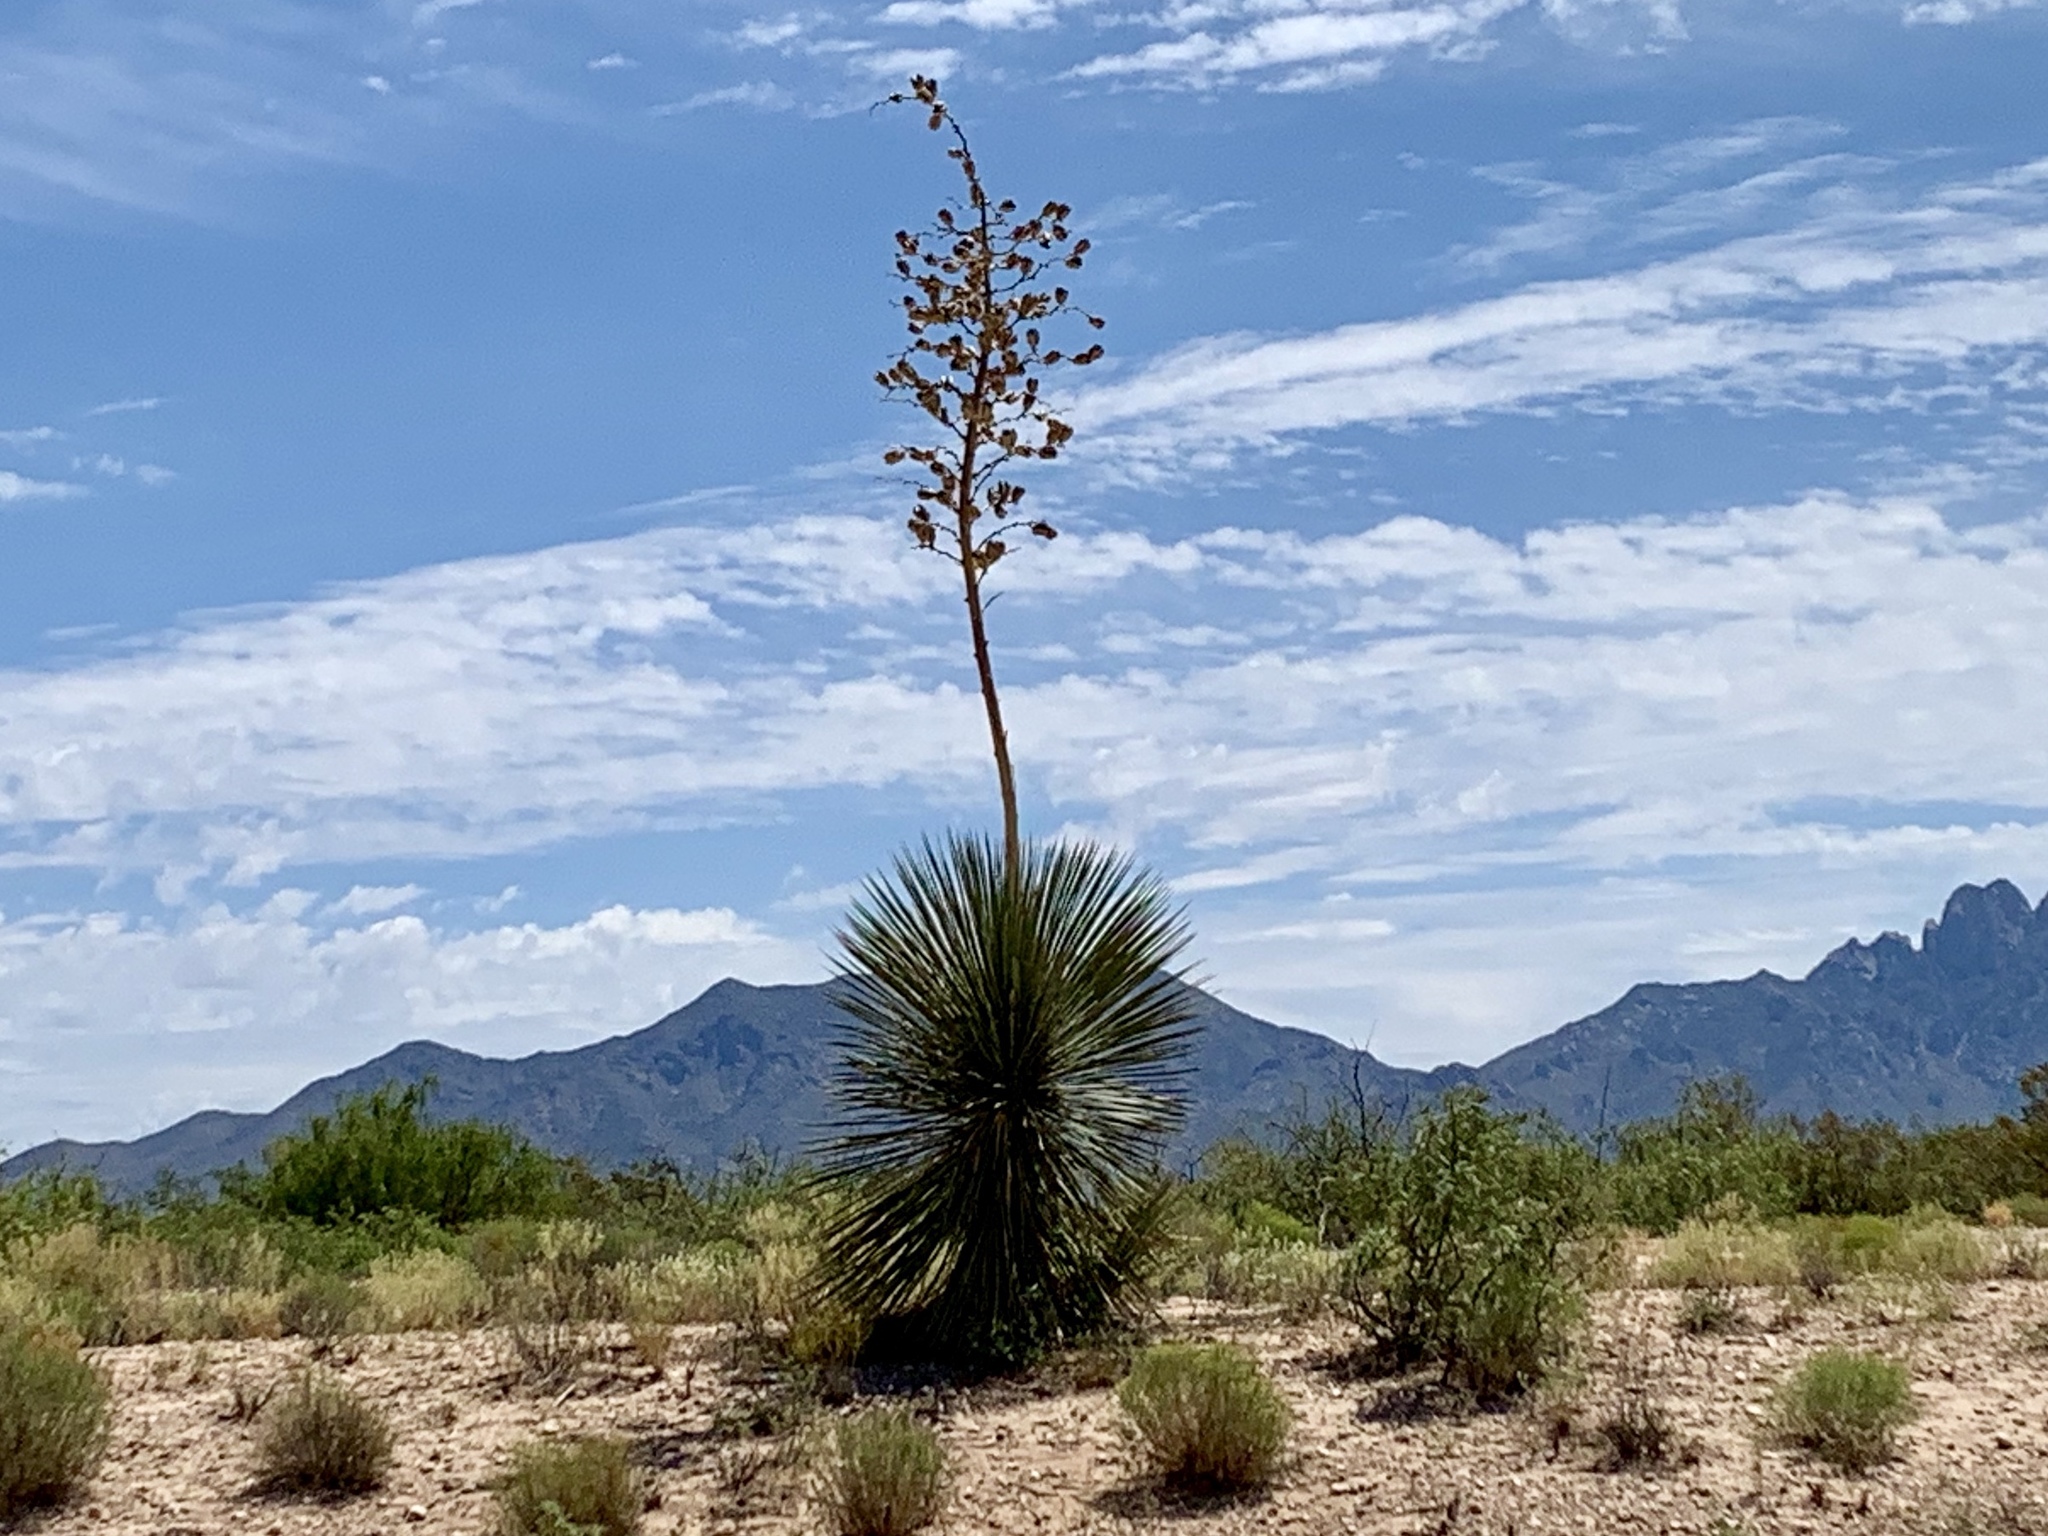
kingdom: Plantae
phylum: Tracheophyta
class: Liliopsida
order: Asparagales
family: Asparagaceae
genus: Yucca
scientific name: Yucca elata
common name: Palmella
